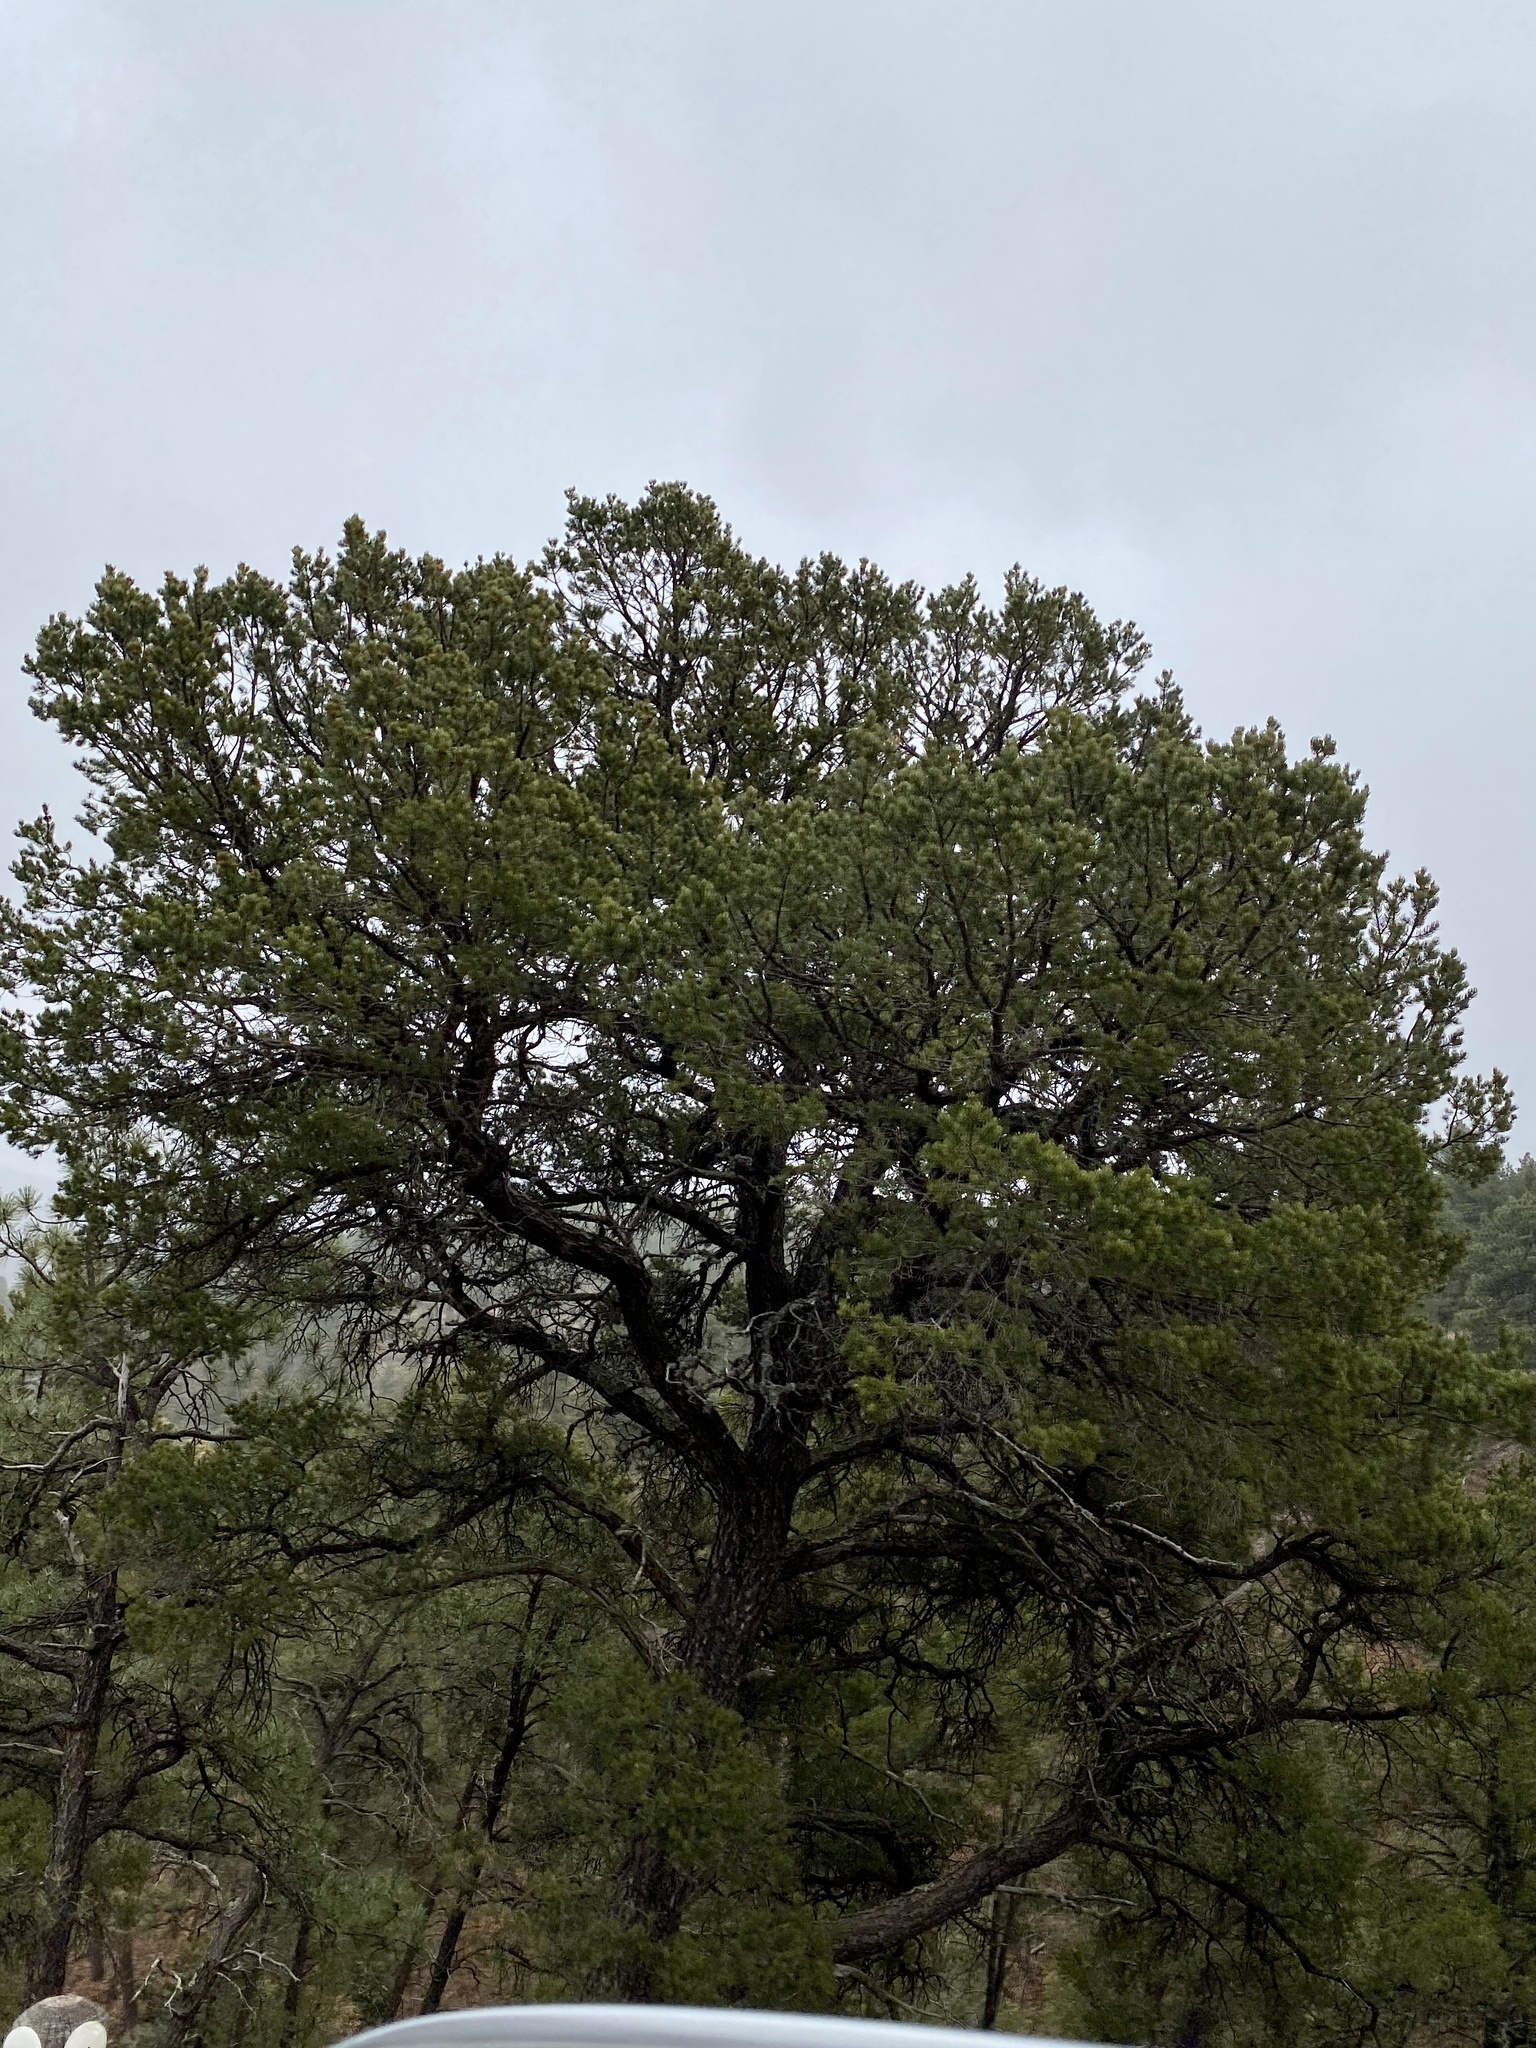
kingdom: Plantae
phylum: Tracheophyta
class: Pinopsida
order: Pinales
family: Pinaceae
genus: Pinus
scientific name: Pinus edulis
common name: Colorado pinyon
